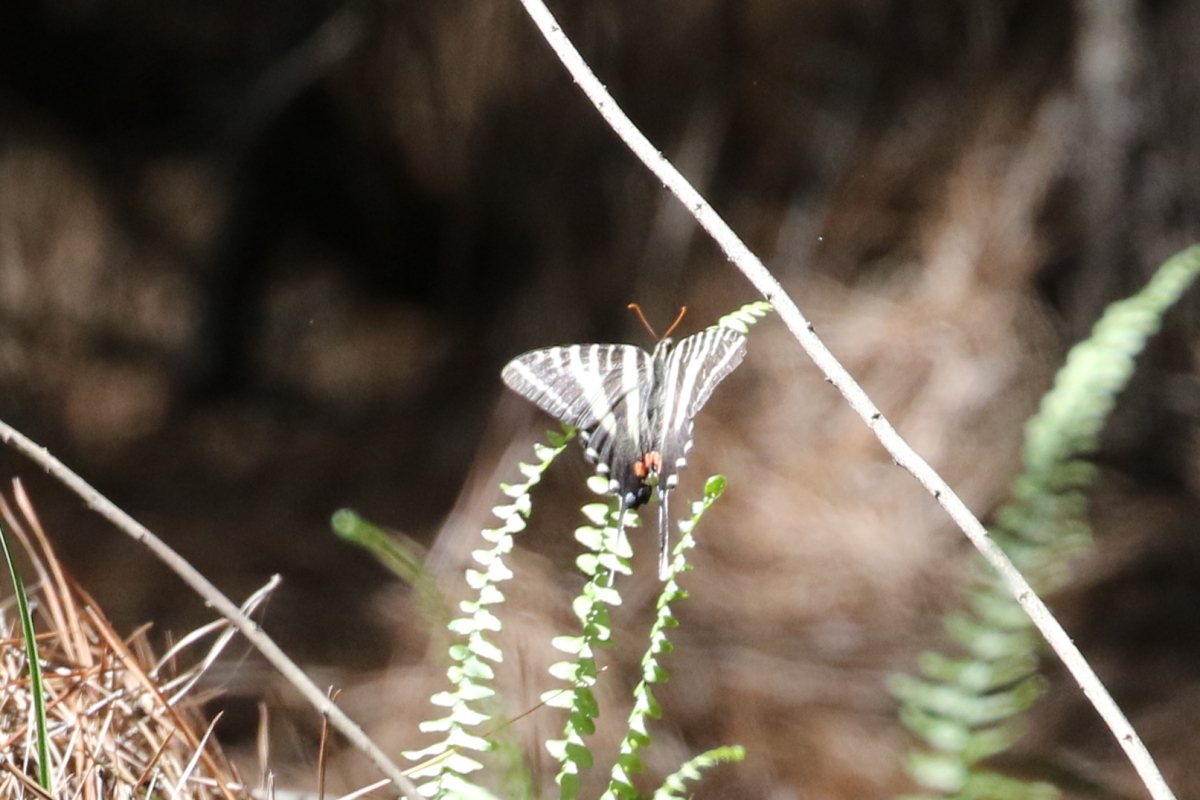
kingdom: Animalia
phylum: Arthropoda
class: Insecta
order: Lepidoptera
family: Papilionidae
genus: Protographium
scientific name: Protographium marcellus
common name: Zebra swallowtail
